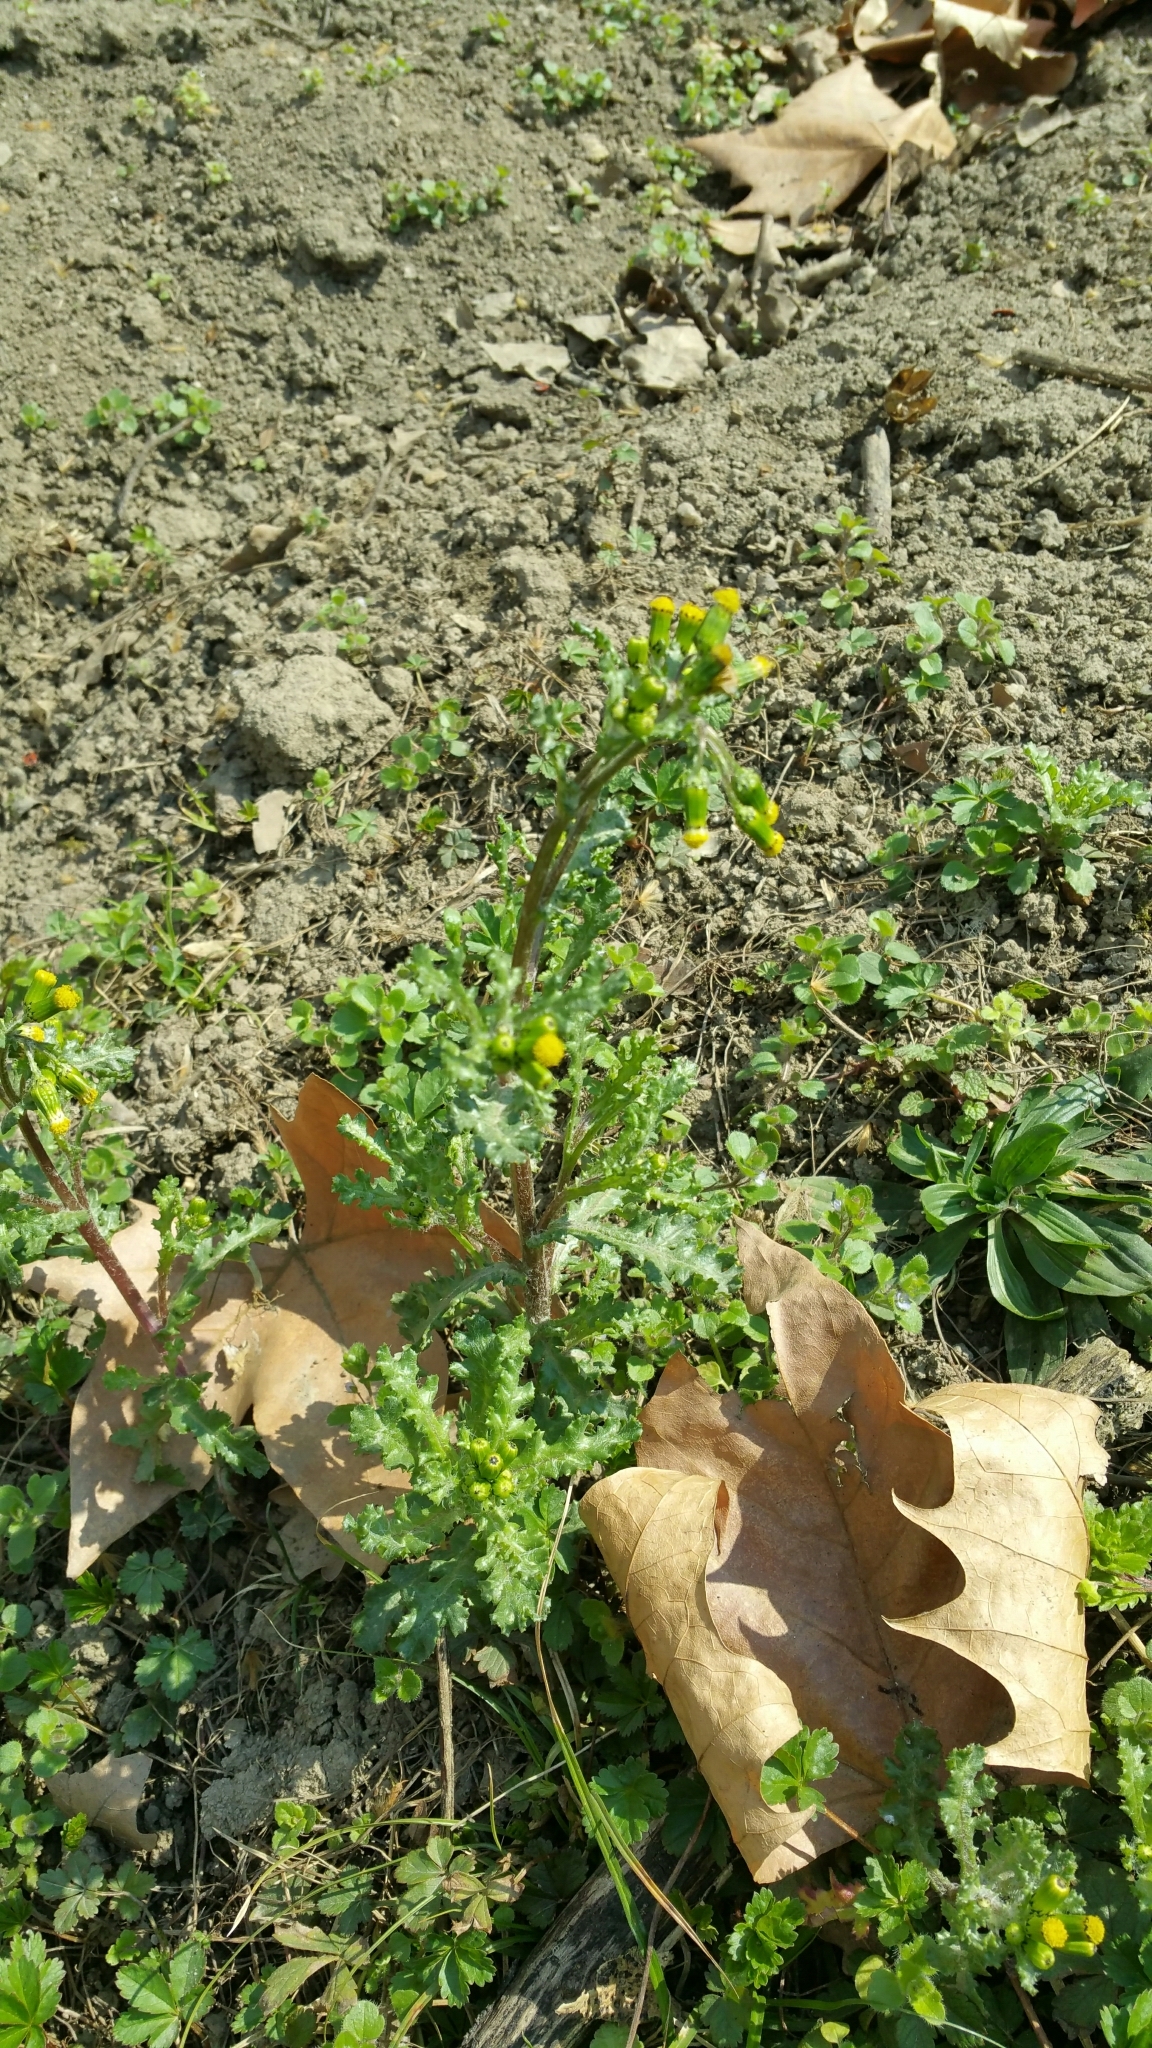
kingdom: Plantae
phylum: Tracheophyta
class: Magnoliopsida
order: Asterales
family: Asteraceae
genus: Senecio
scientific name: Senecio vulgaris
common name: Old-man-in-the-spring
